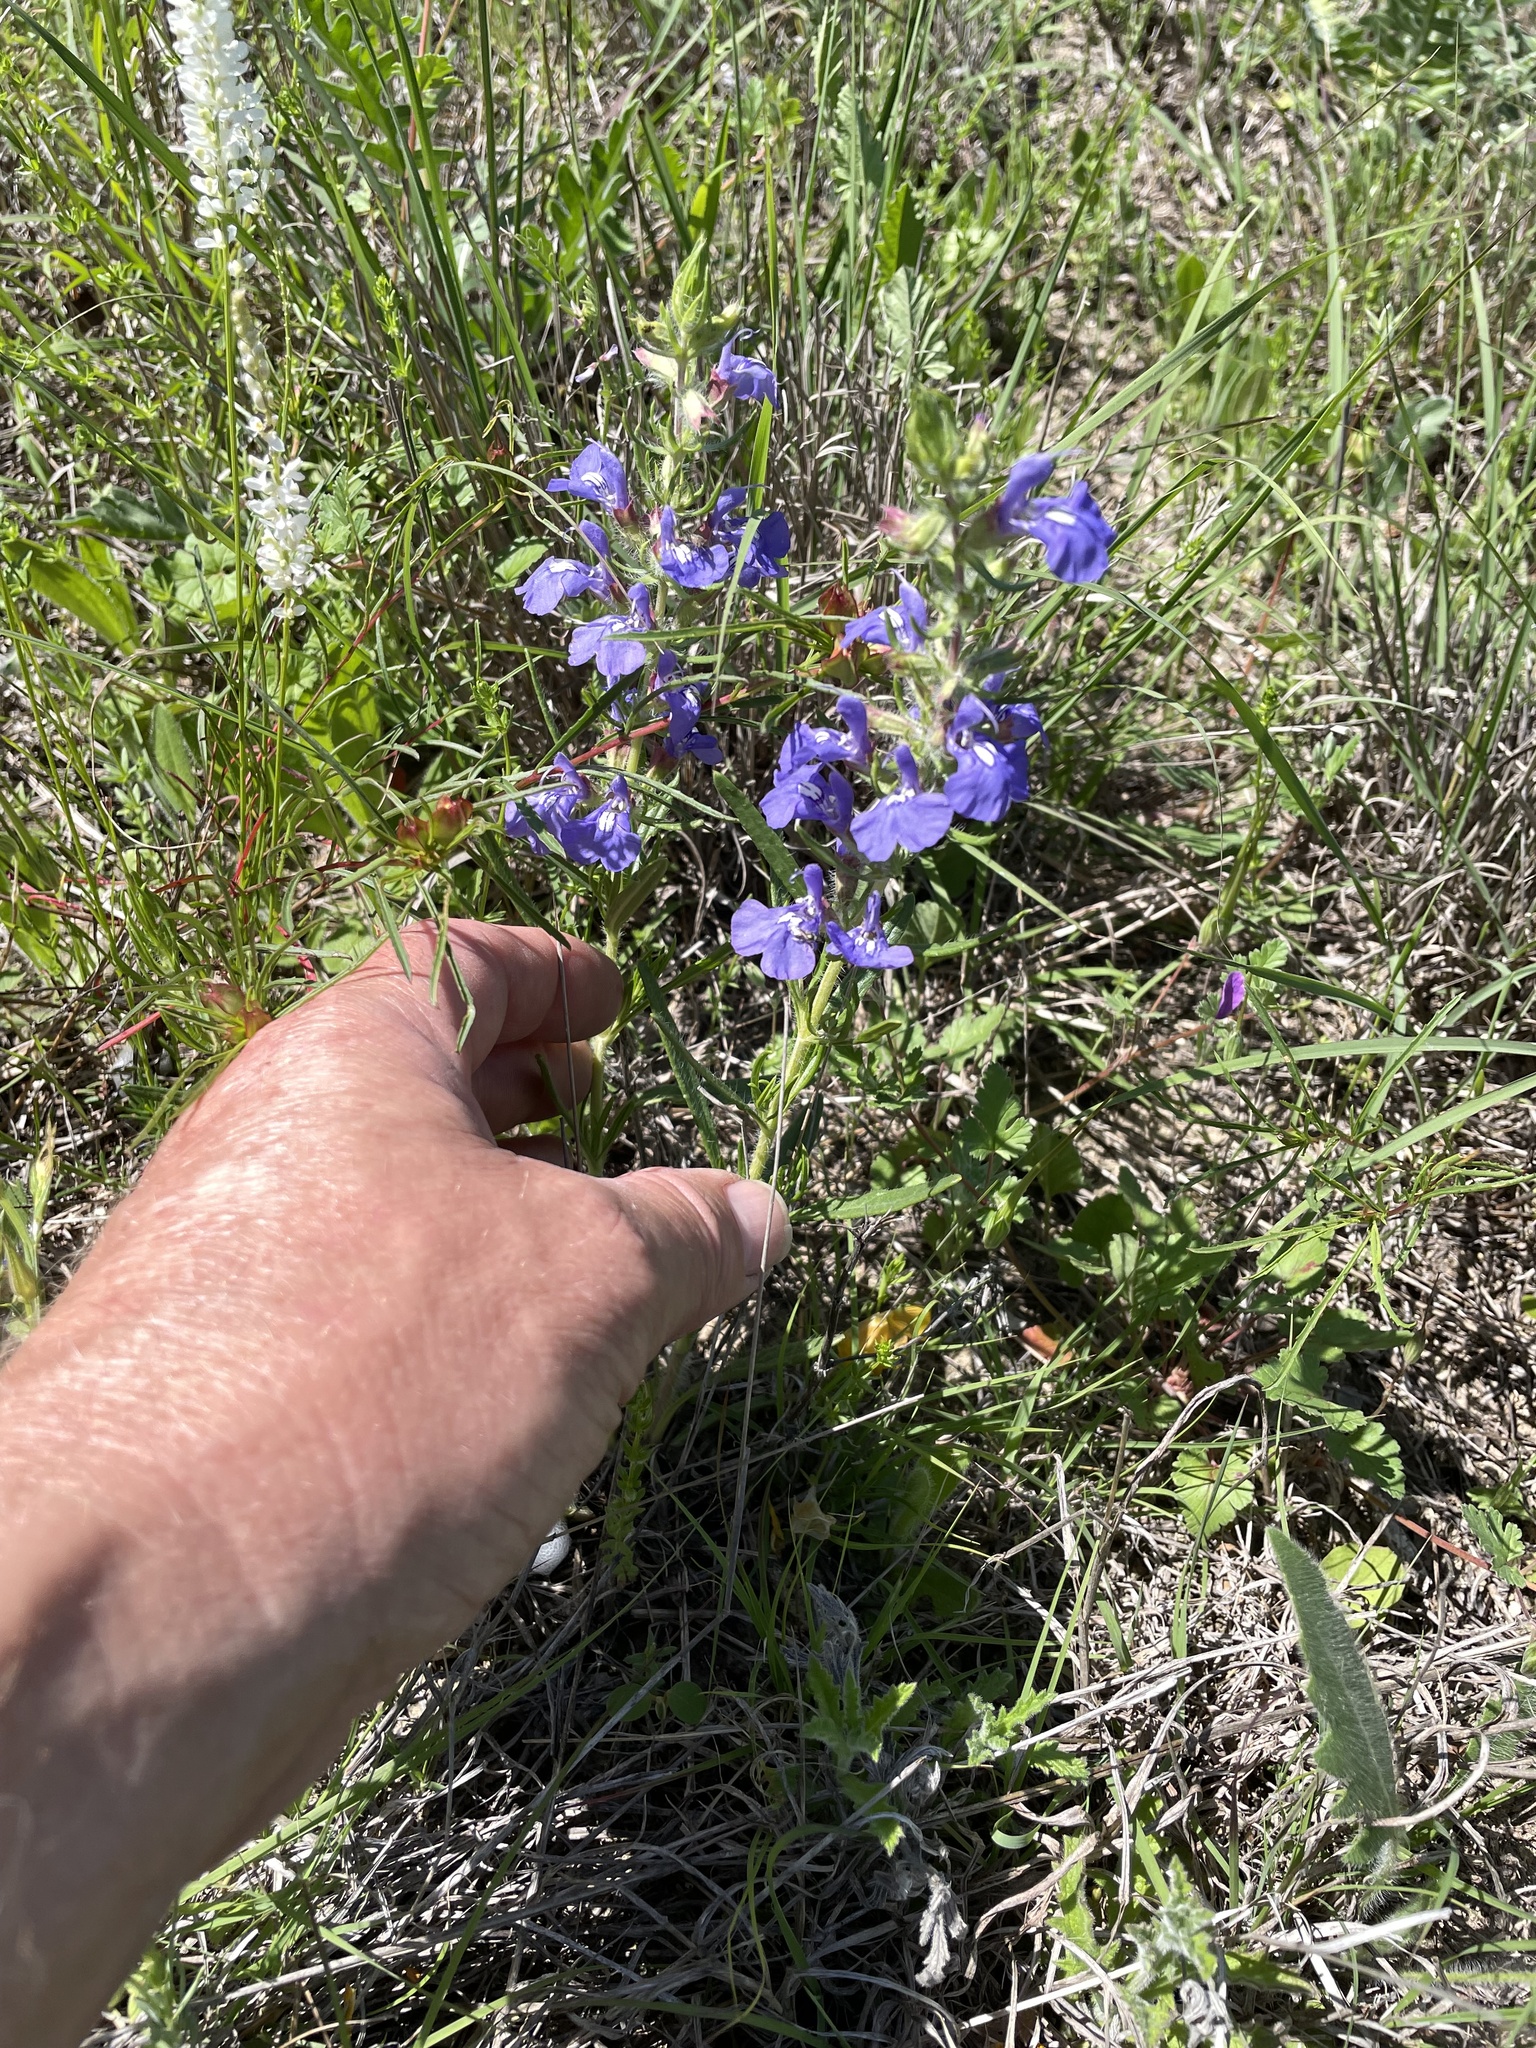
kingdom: Plantae
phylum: Tracheophyta
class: Magnoliopsida
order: Lamiales
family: Lamiaceae
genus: Salvia
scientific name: Salvia texana
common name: Texas sage
